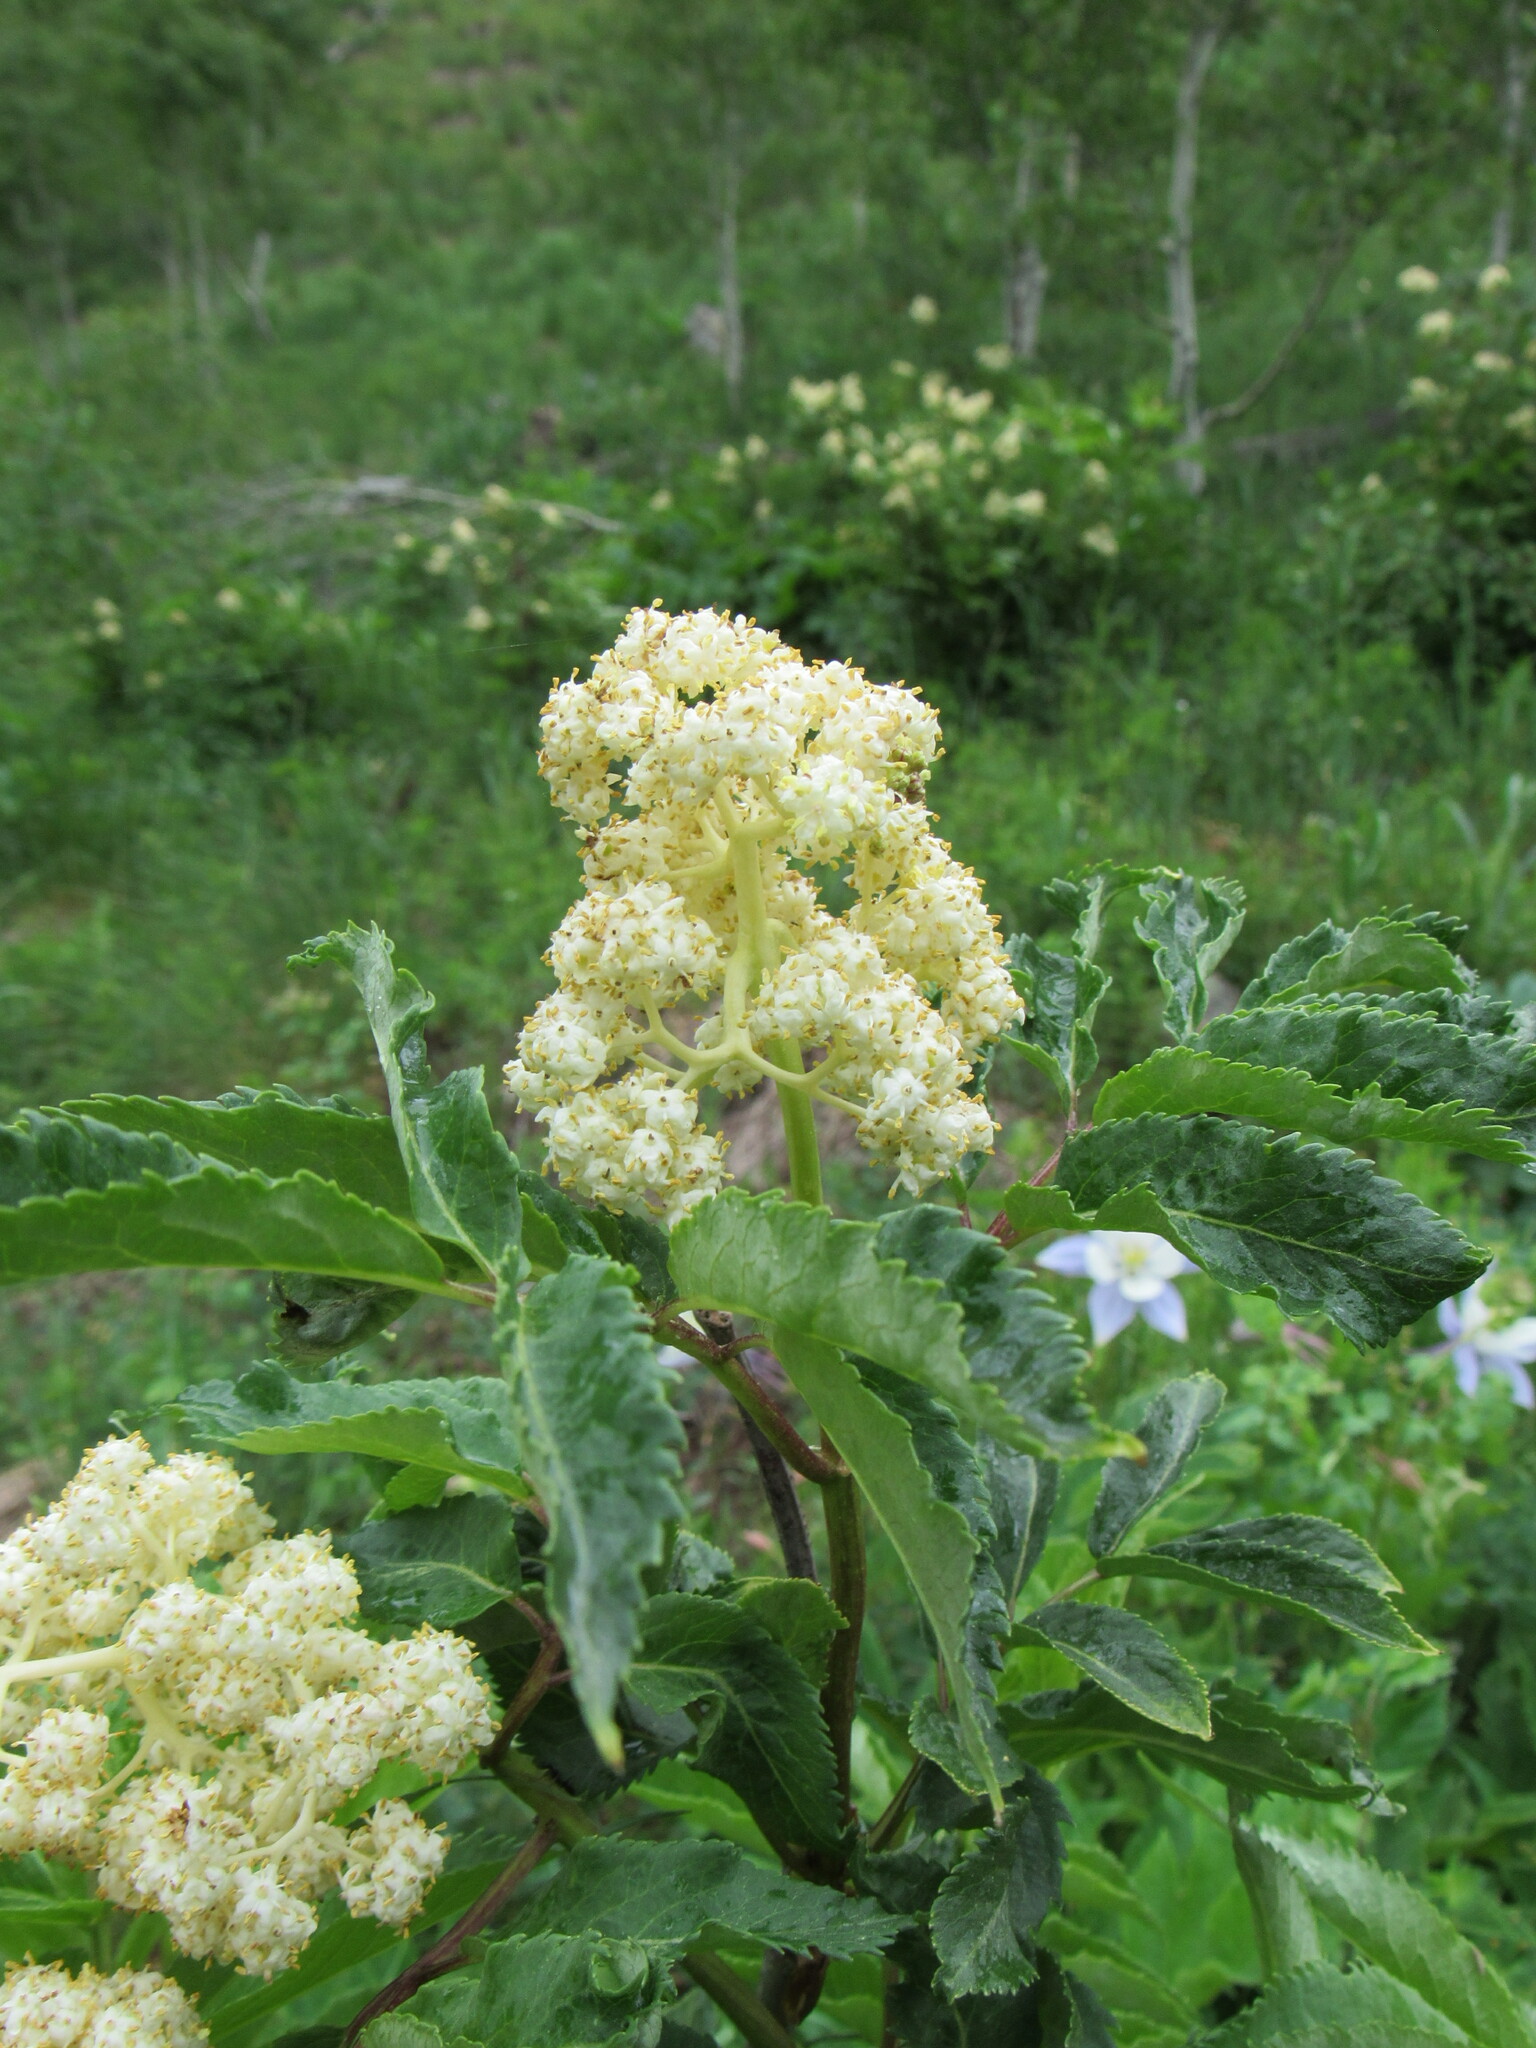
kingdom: Plantae
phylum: Tracheophyta
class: Magnoliopsida
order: Dipsacales
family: Viburnaceae
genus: Sambucus
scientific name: Sambucus racemosa
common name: Red-berried elder
